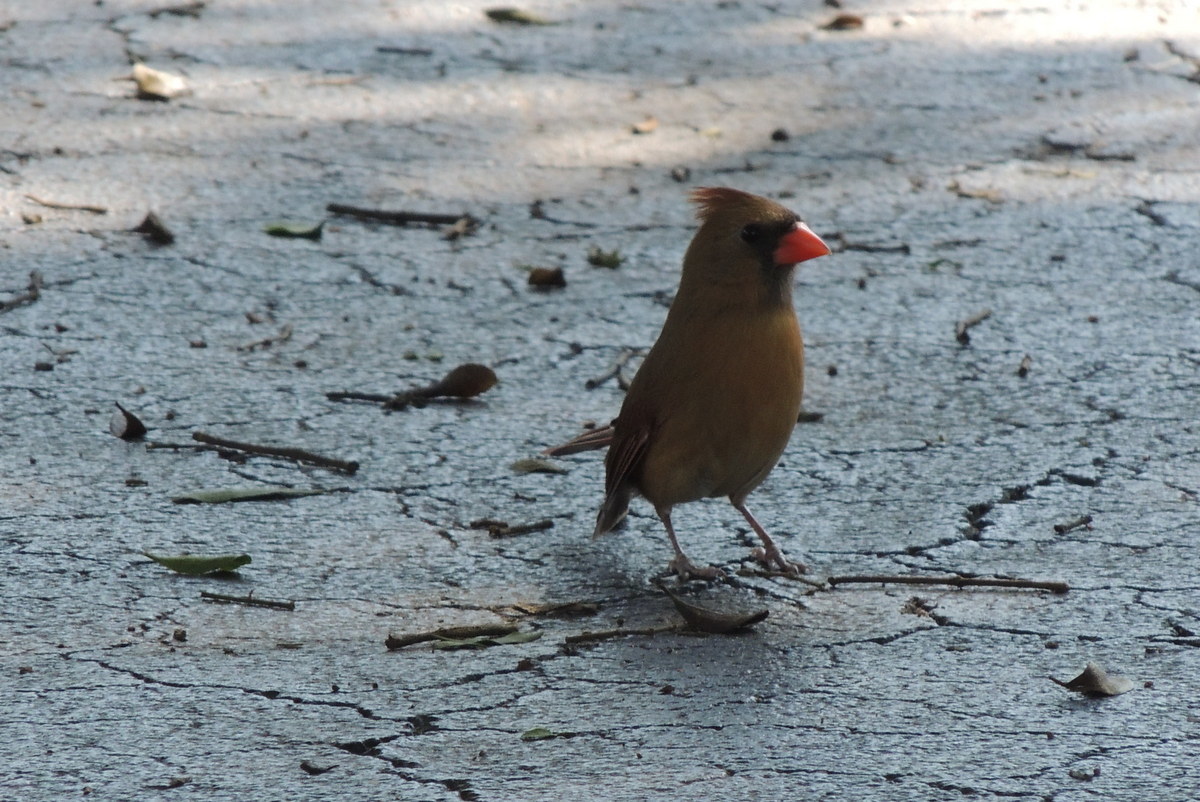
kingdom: Animalia
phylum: Chordata
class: Aves
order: Passeriformes
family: Cardinalidae
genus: Cardinalis
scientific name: Cardinalis cardinalis
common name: Northern cardinal
